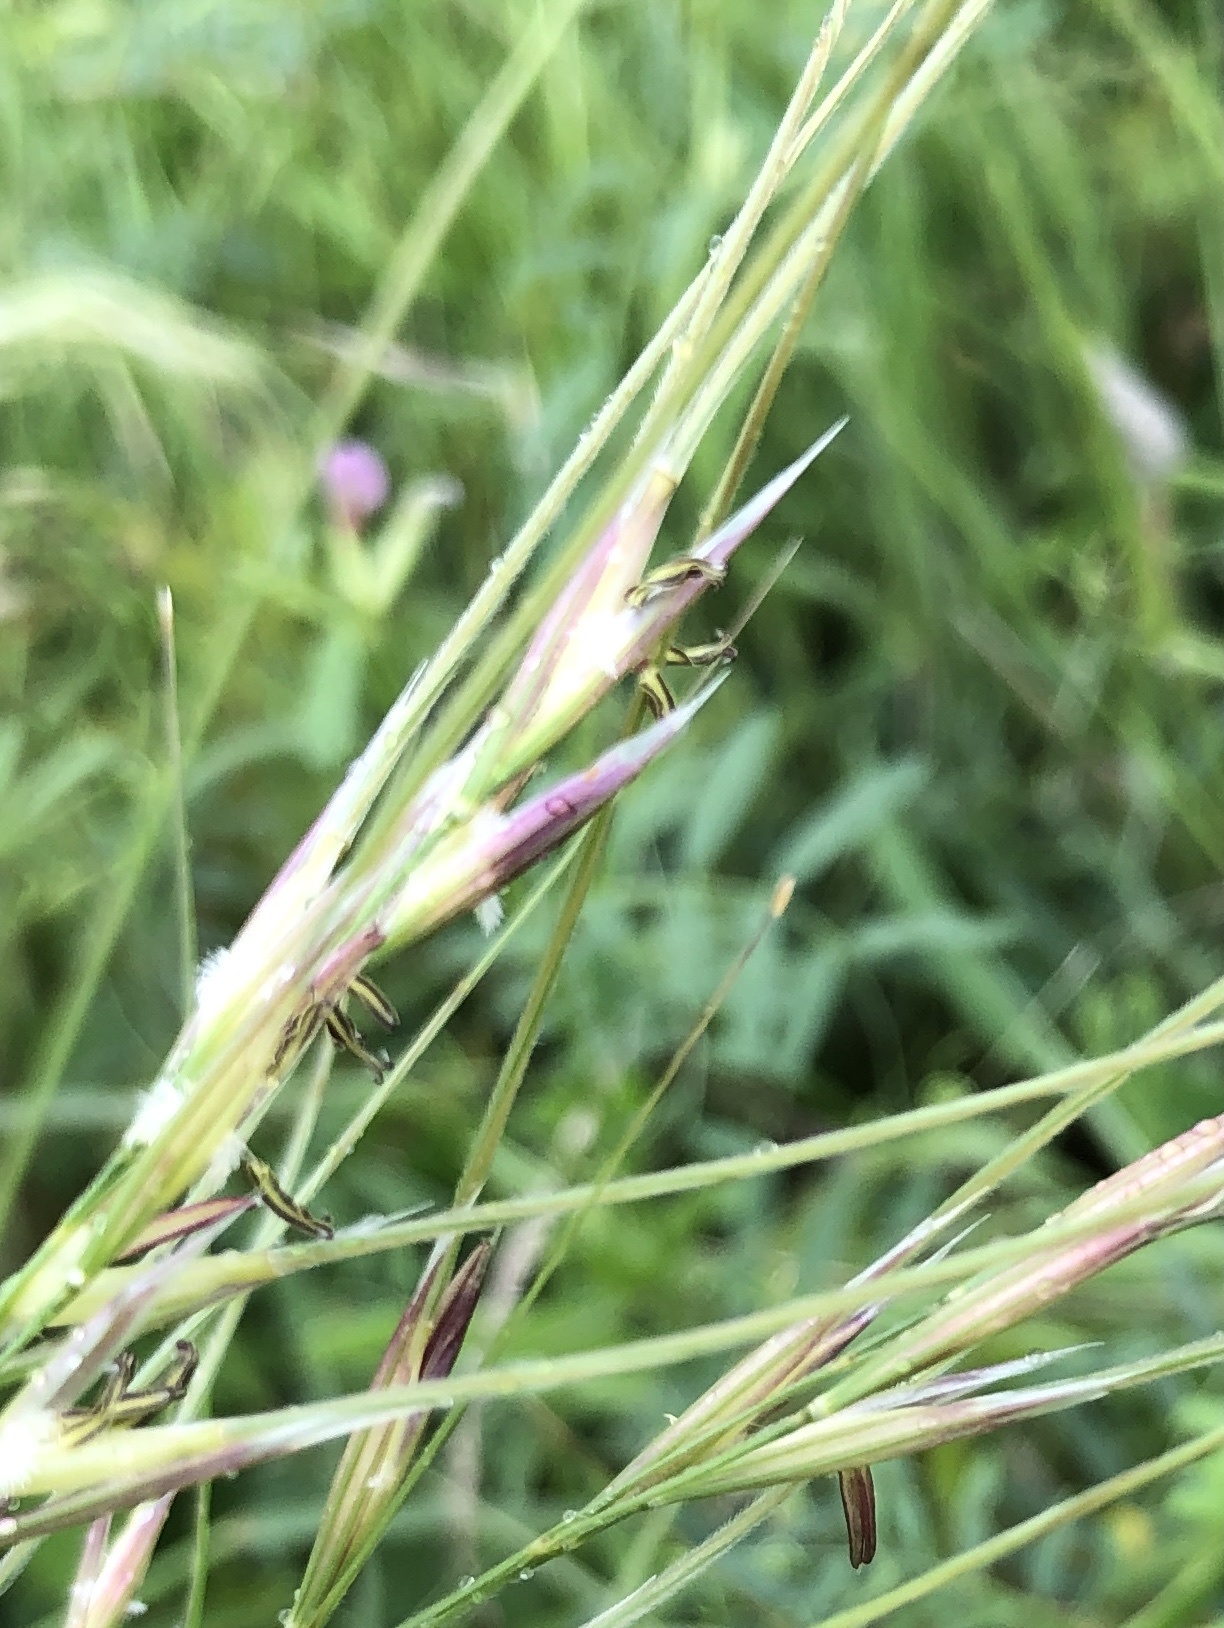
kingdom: Plantae
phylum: Tracheophyta
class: Liliopsida
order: Poales
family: Poaceae
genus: Nassella
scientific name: Nassella leucotricha
